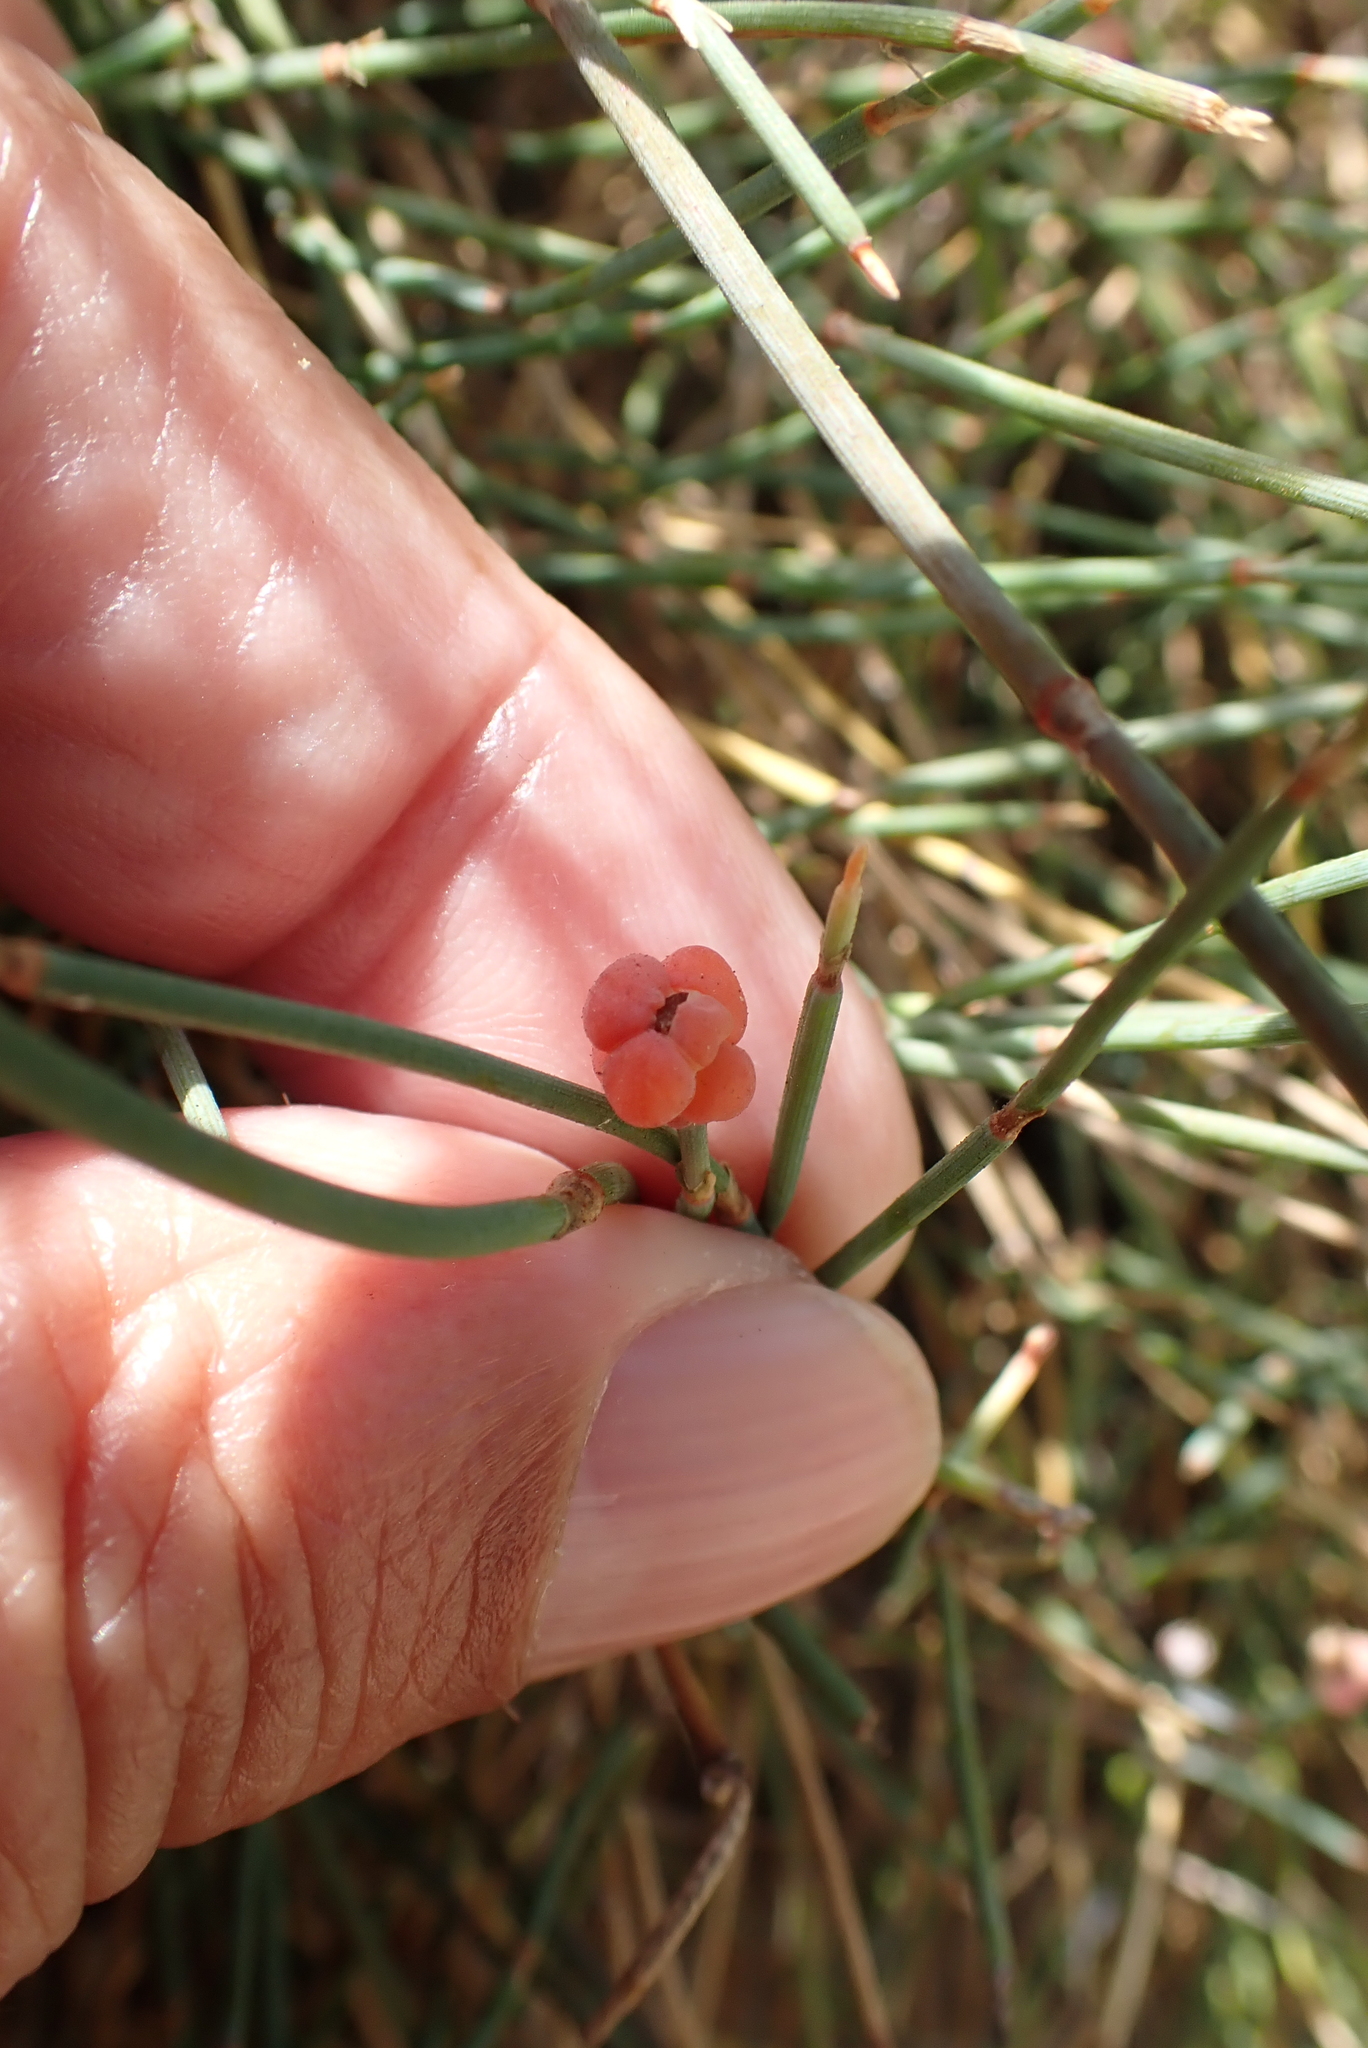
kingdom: Plantae
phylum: Tracheophyta
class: Gnetopsida
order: Ephedrales
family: Ephedraceae
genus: Ephedra
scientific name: Ephedra distachya
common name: Sea grape
